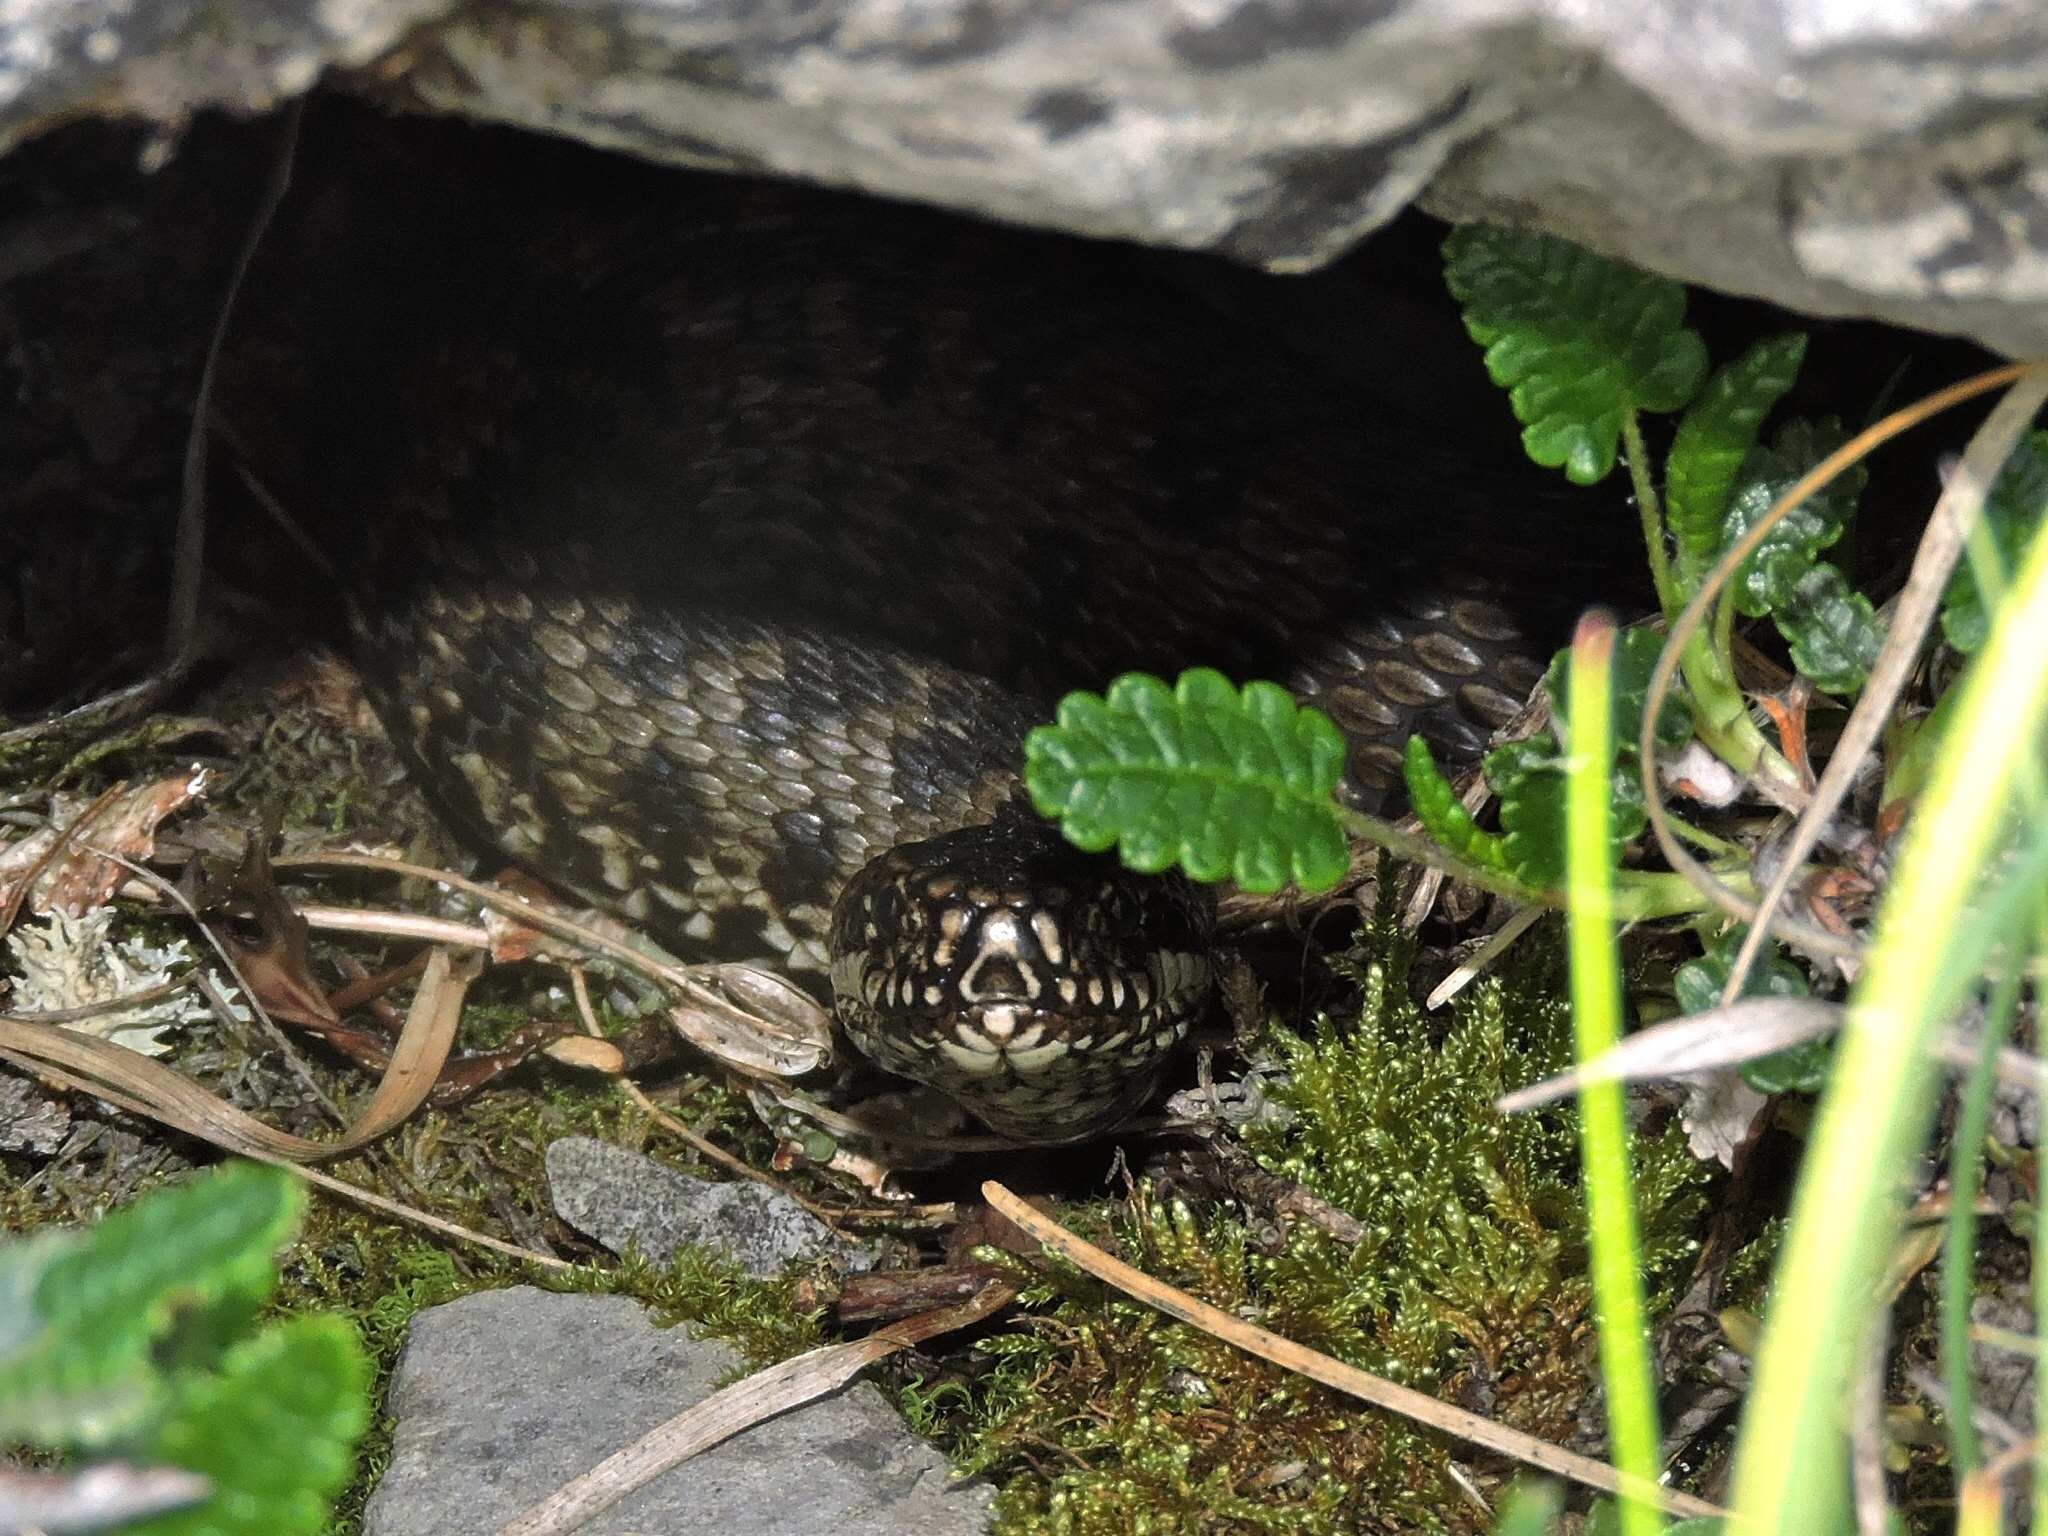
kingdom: Animalia
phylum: Chordata
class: Squamata
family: Viperidae
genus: Vipera
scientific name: Vipera berus
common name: Adder
